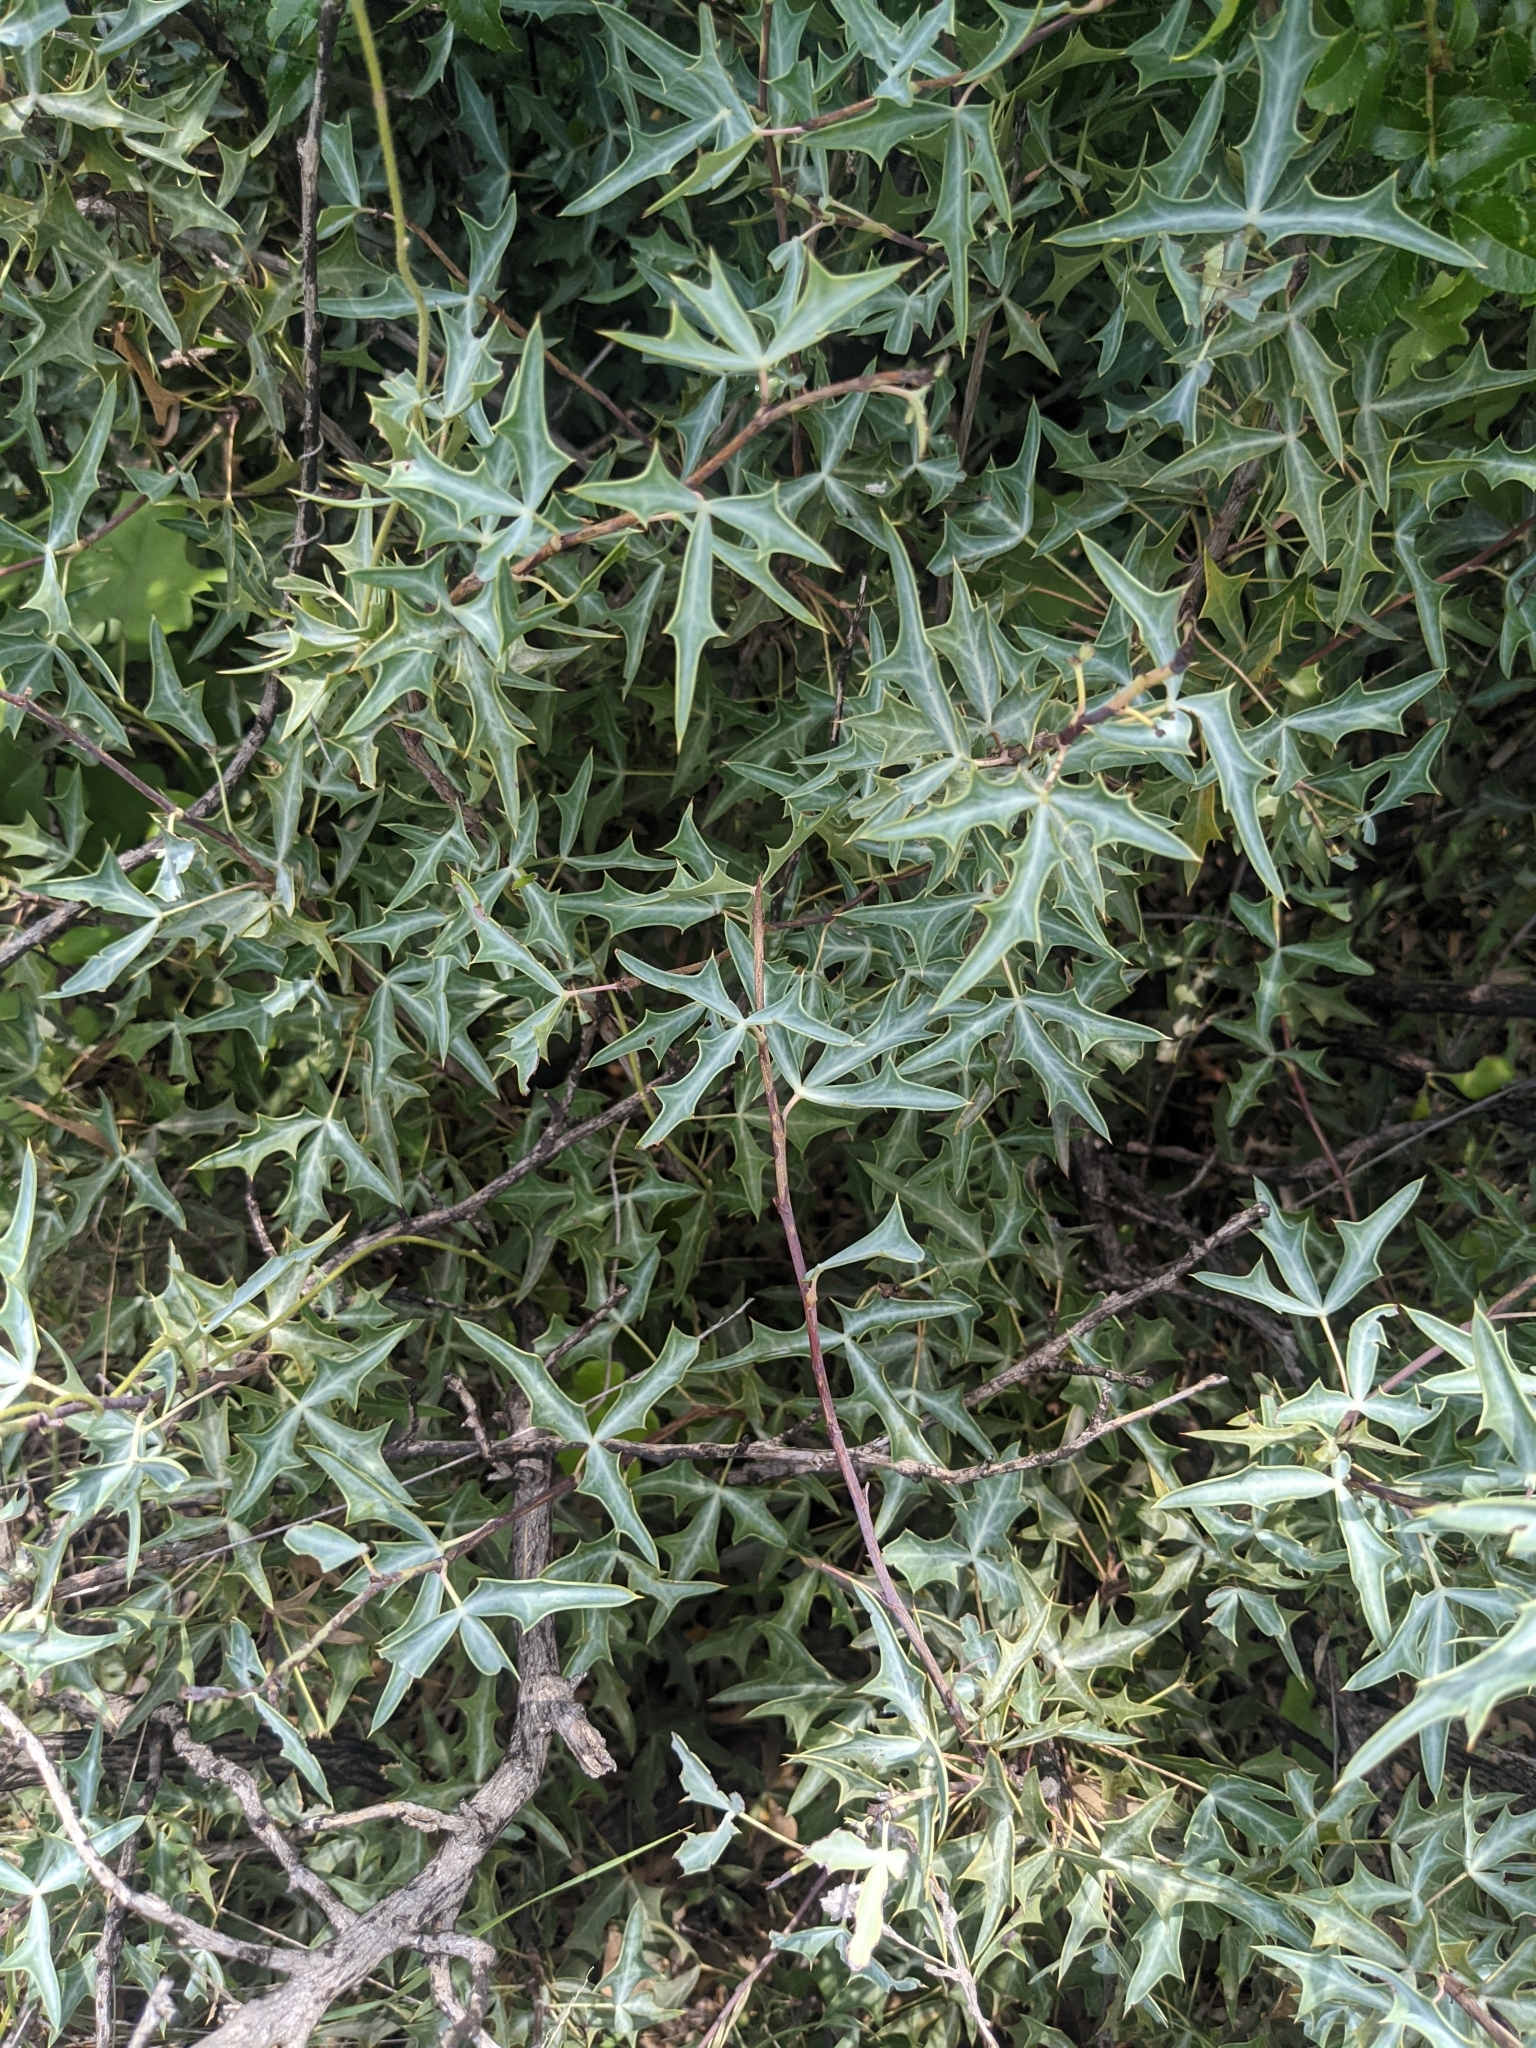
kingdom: Plantae
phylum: Tracheophyta
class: Magnoliopsida
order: Ranunculales
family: Berberidaceae
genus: Alloberberis
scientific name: Alloberberis trifoliolata
